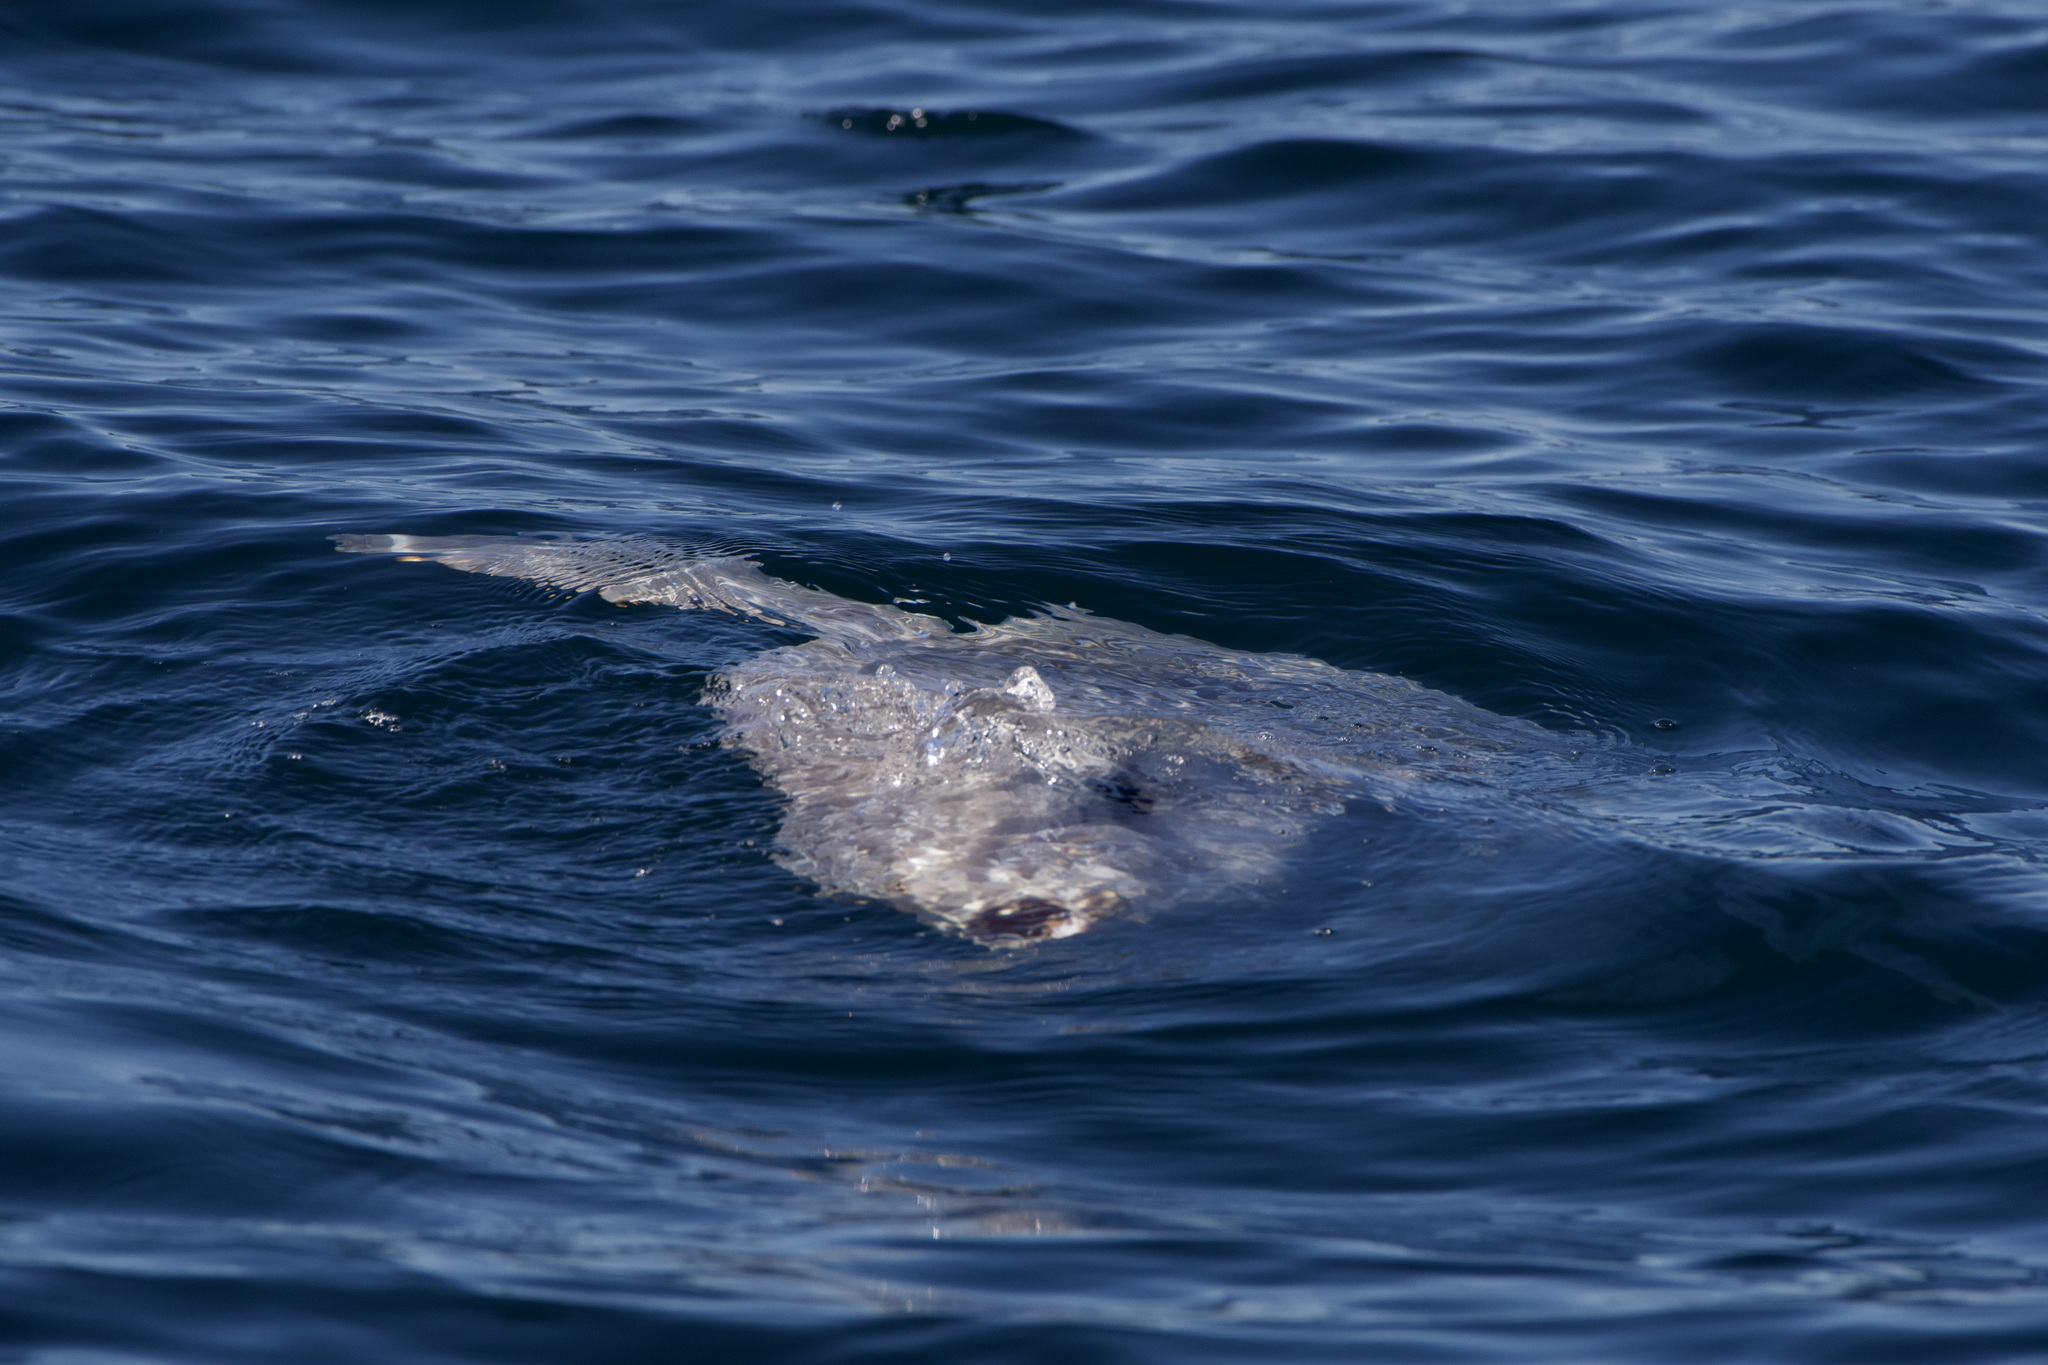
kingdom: Animalia
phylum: Chordata
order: Tetraodontiformes
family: Molidae
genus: Mola
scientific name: Mola mola
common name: Ocean sunfish
